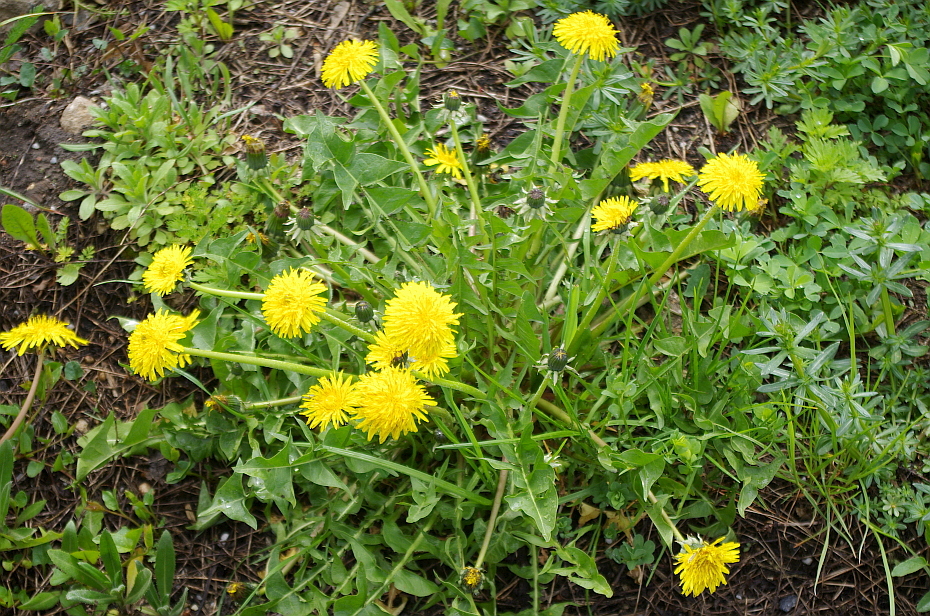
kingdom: Plantae
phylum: Tracheophyta
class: Magnoliopsida
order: Asterales
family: Asteraceae
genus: Taraxacum
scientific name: Taraxacum officinale
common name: Common dandelion
